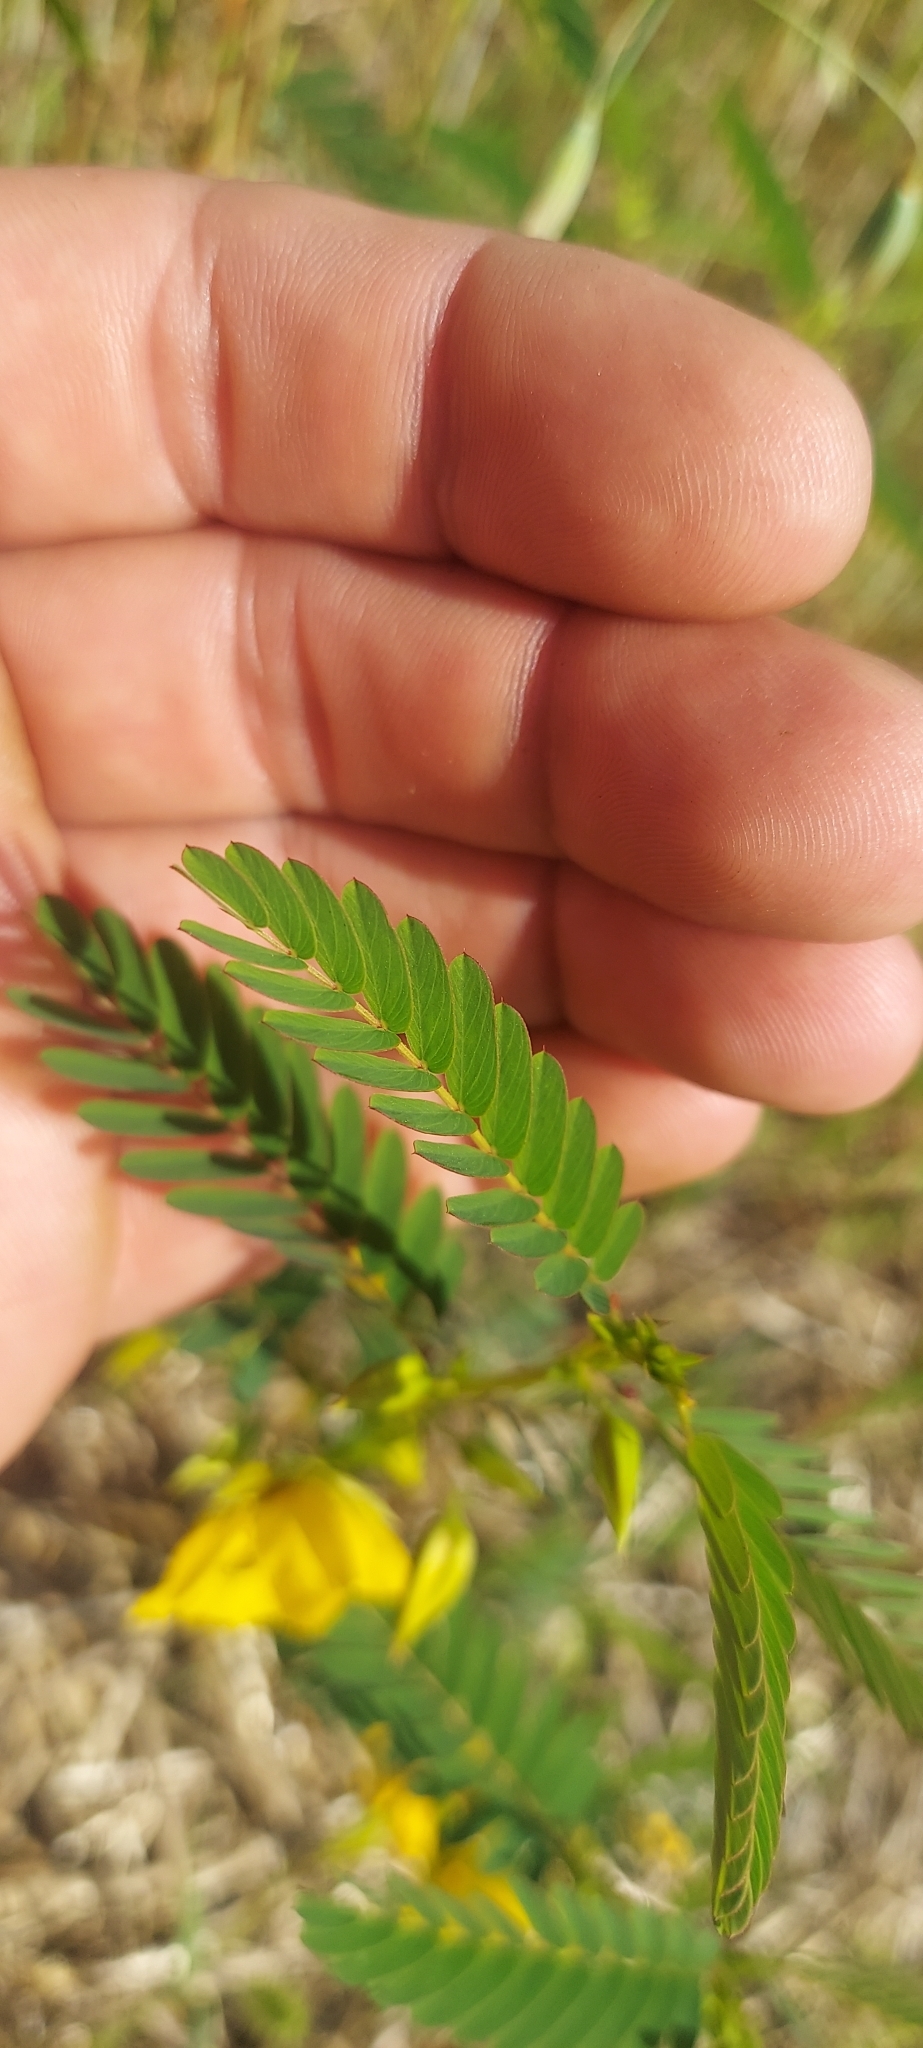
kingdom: Plantae
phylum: Tracheophyta
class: Magnoliopsida
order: Fabales
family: Fabaceae
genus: Chamaecrista
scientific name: Chamaecrista fasciculata
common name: Golden cassia
